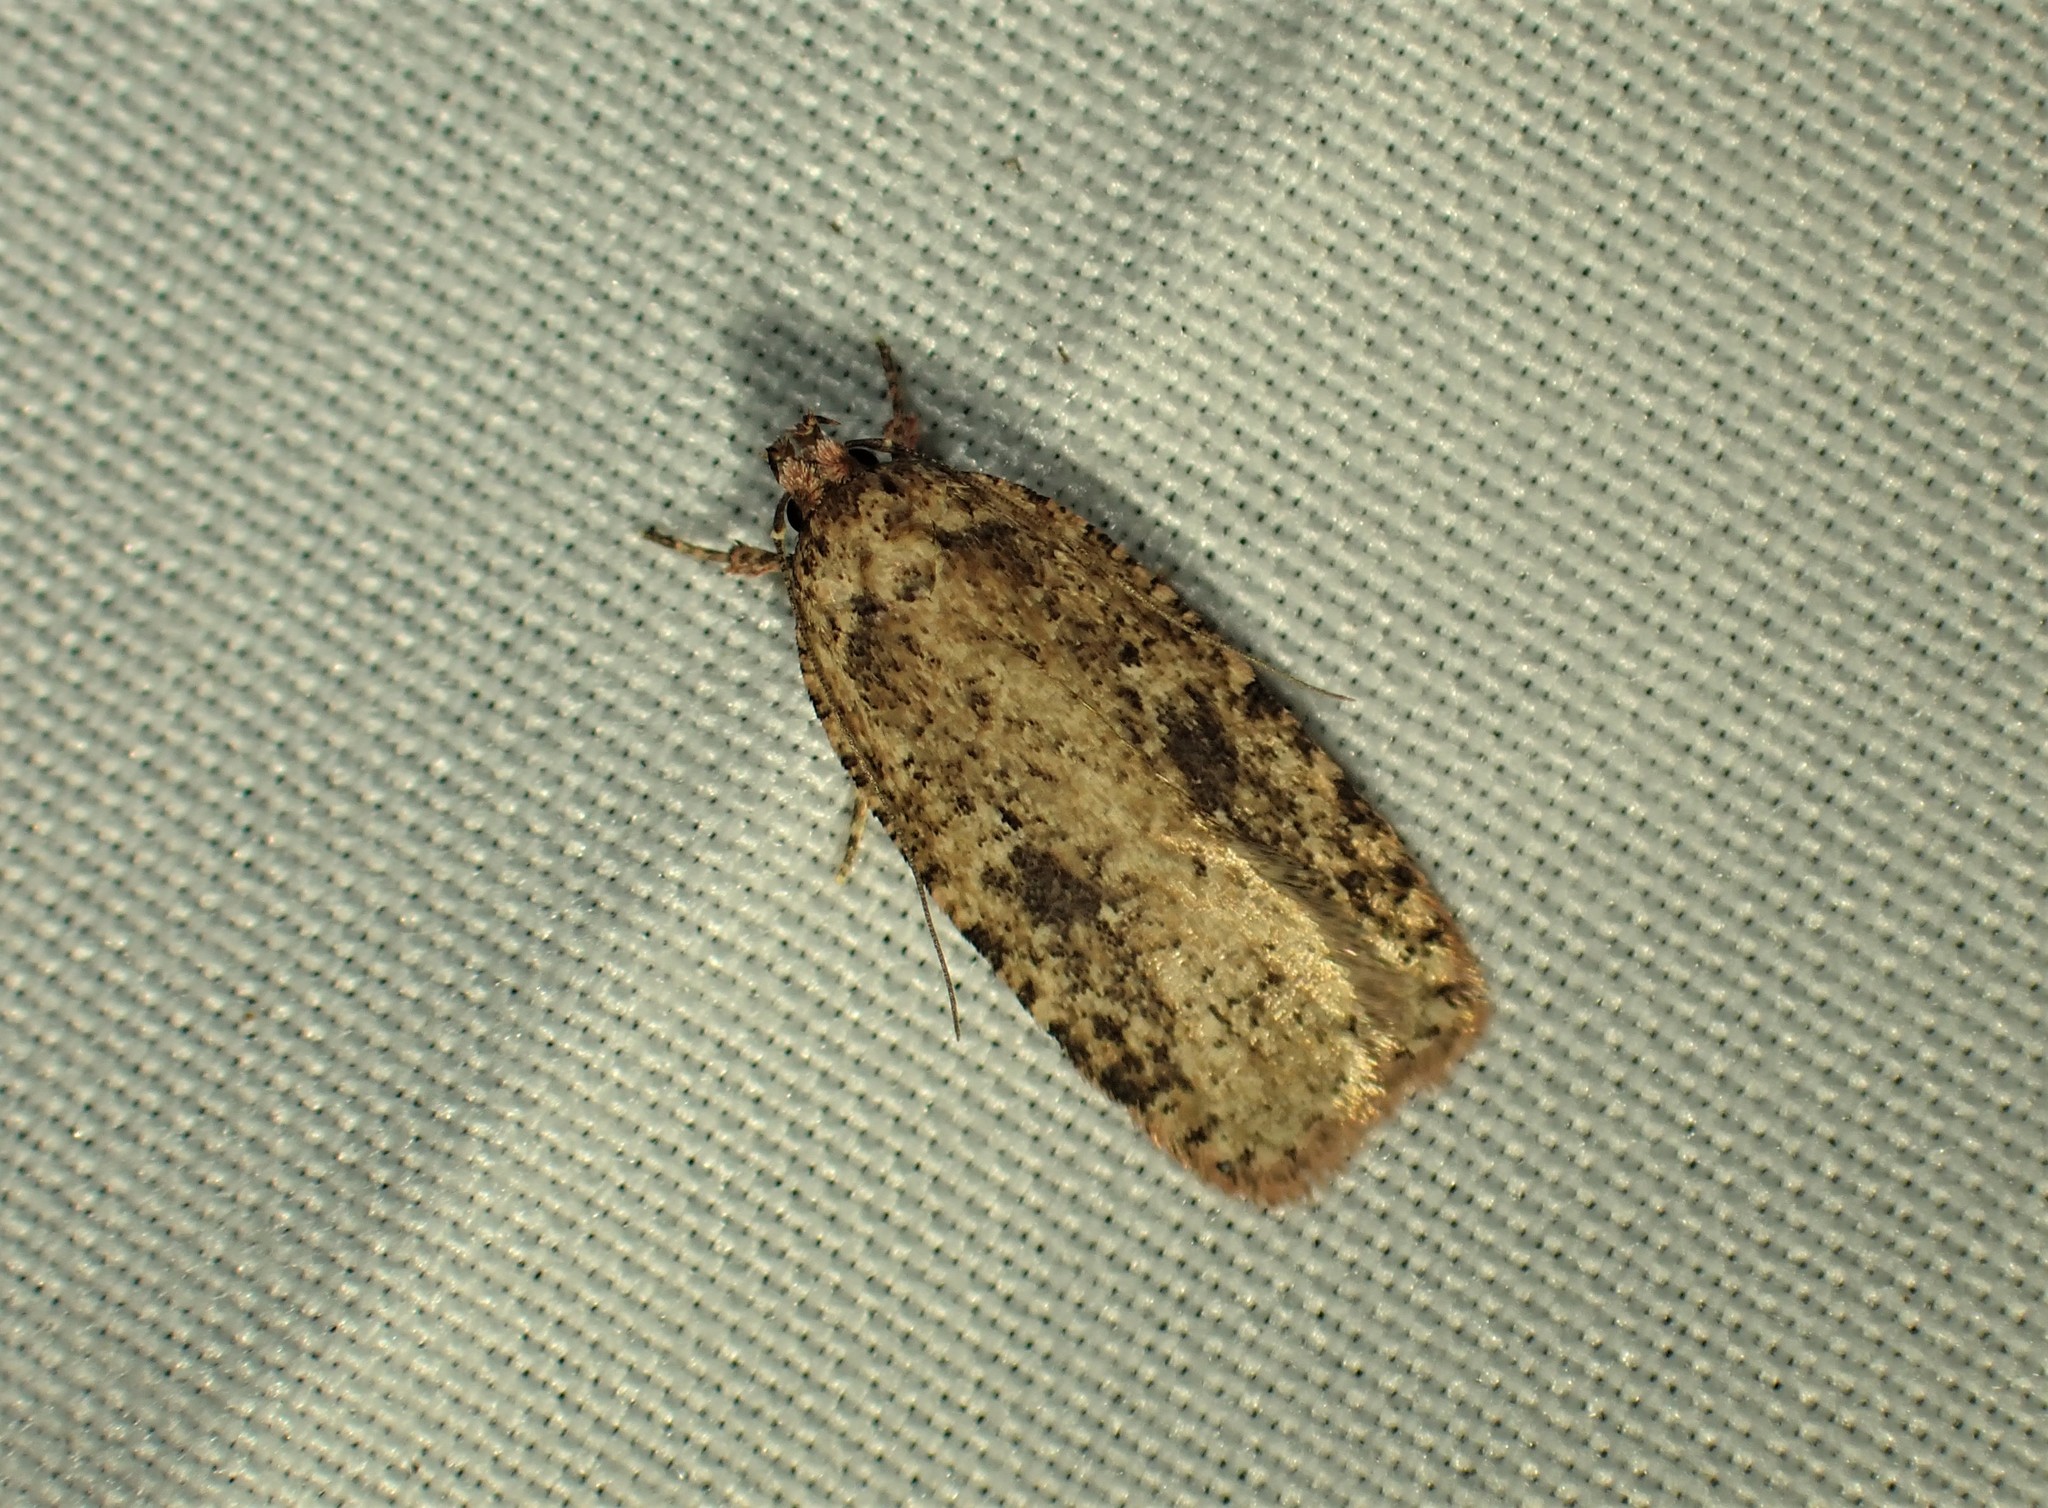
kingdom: Animalia
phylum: Arthropoda
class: Insecta
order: Lepidoptera
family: Depressariidae
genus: Agonopterix
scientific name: Agonopterix pulvipennella
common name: Goldenrod leafffolder
